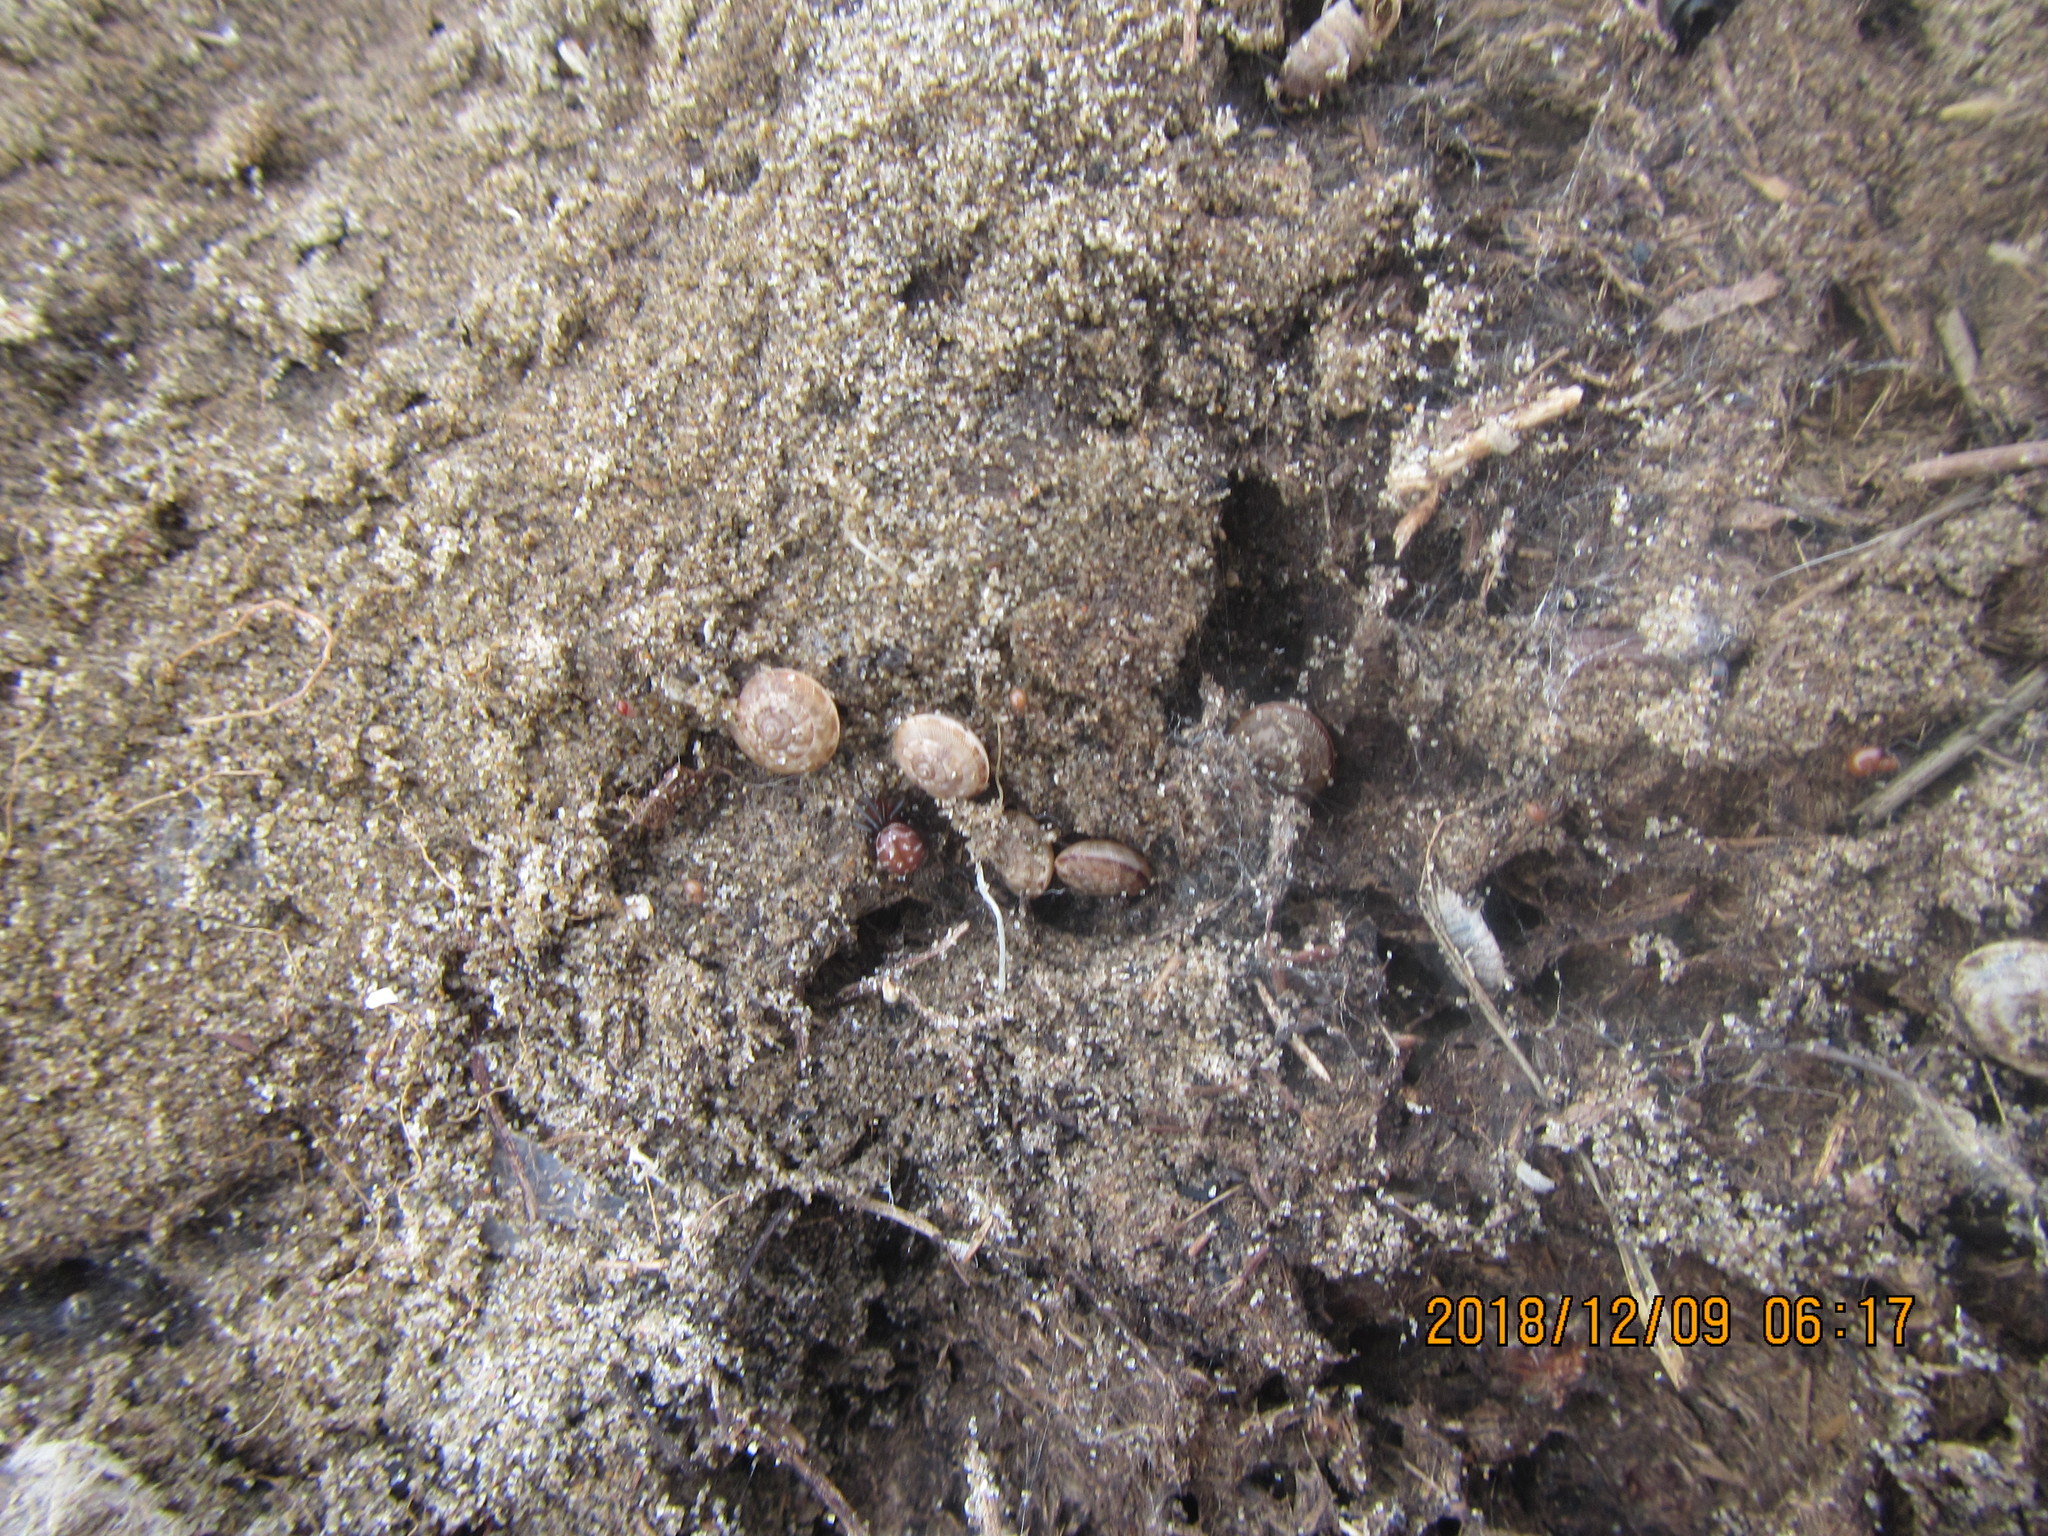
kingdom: Animalia
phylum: Mollusca
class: Gastropoda
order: Stylommatophora
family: Geomitridae
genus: Xeroplexa
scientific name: Xeroplexa intersecta
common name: Wrinkled snail
